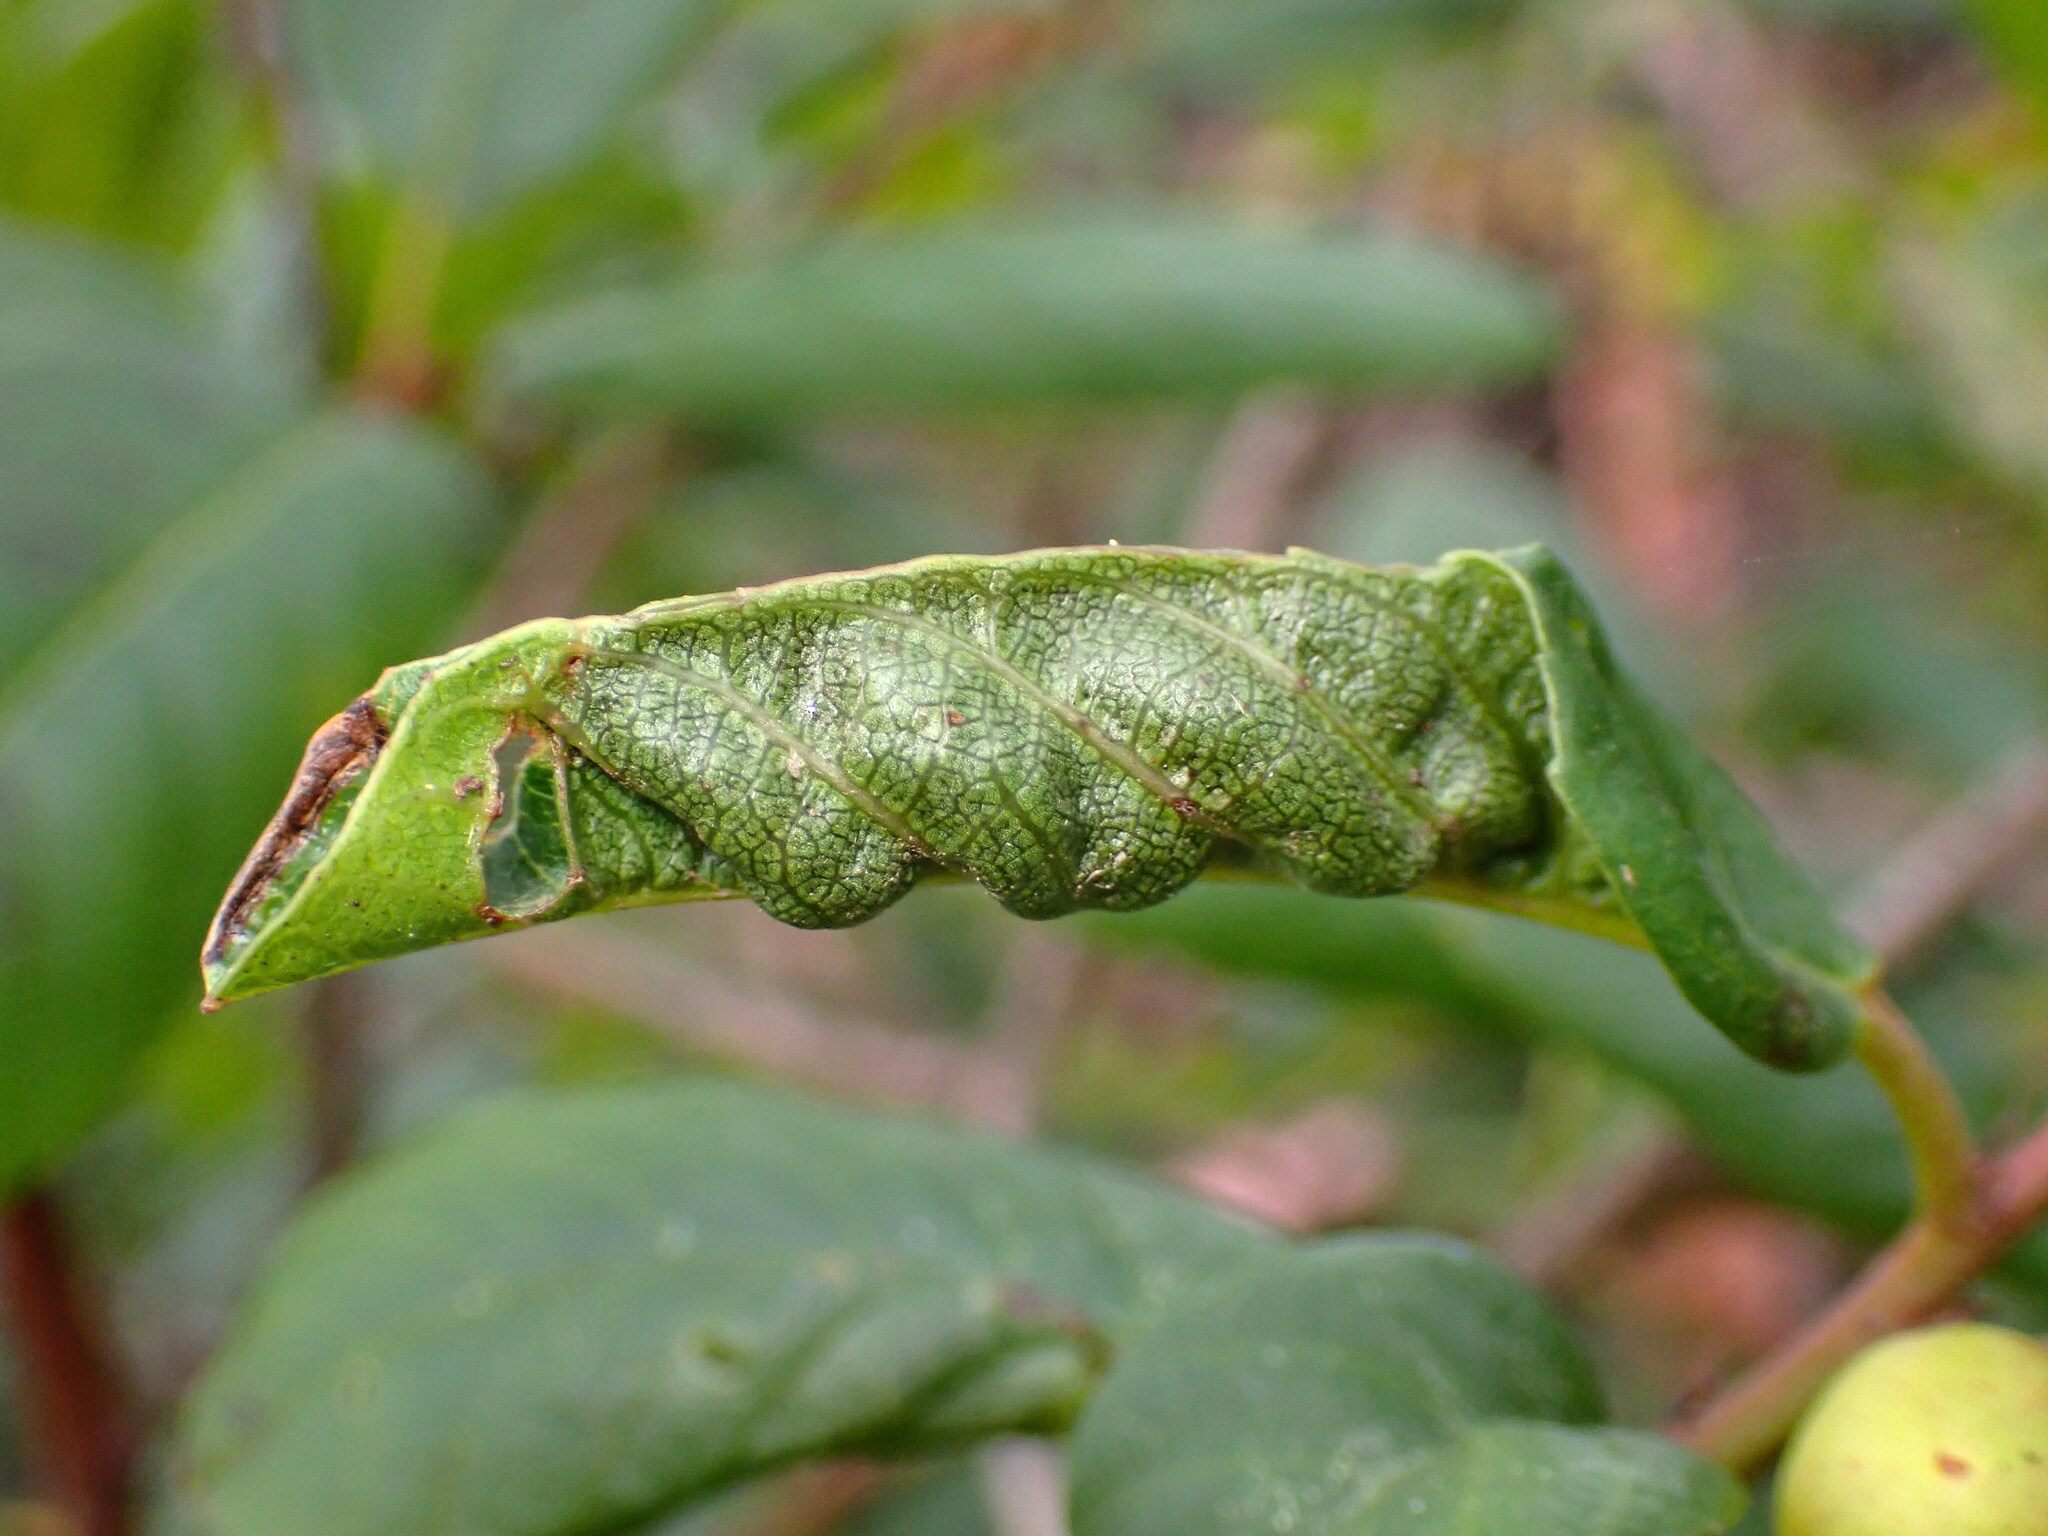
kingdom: Animalia
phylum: Arthropoda
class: Insecta
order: Lepidoptera
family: Cosmopterigidae
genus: Sorhagenia
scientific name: Sorhagenia nimbosus
